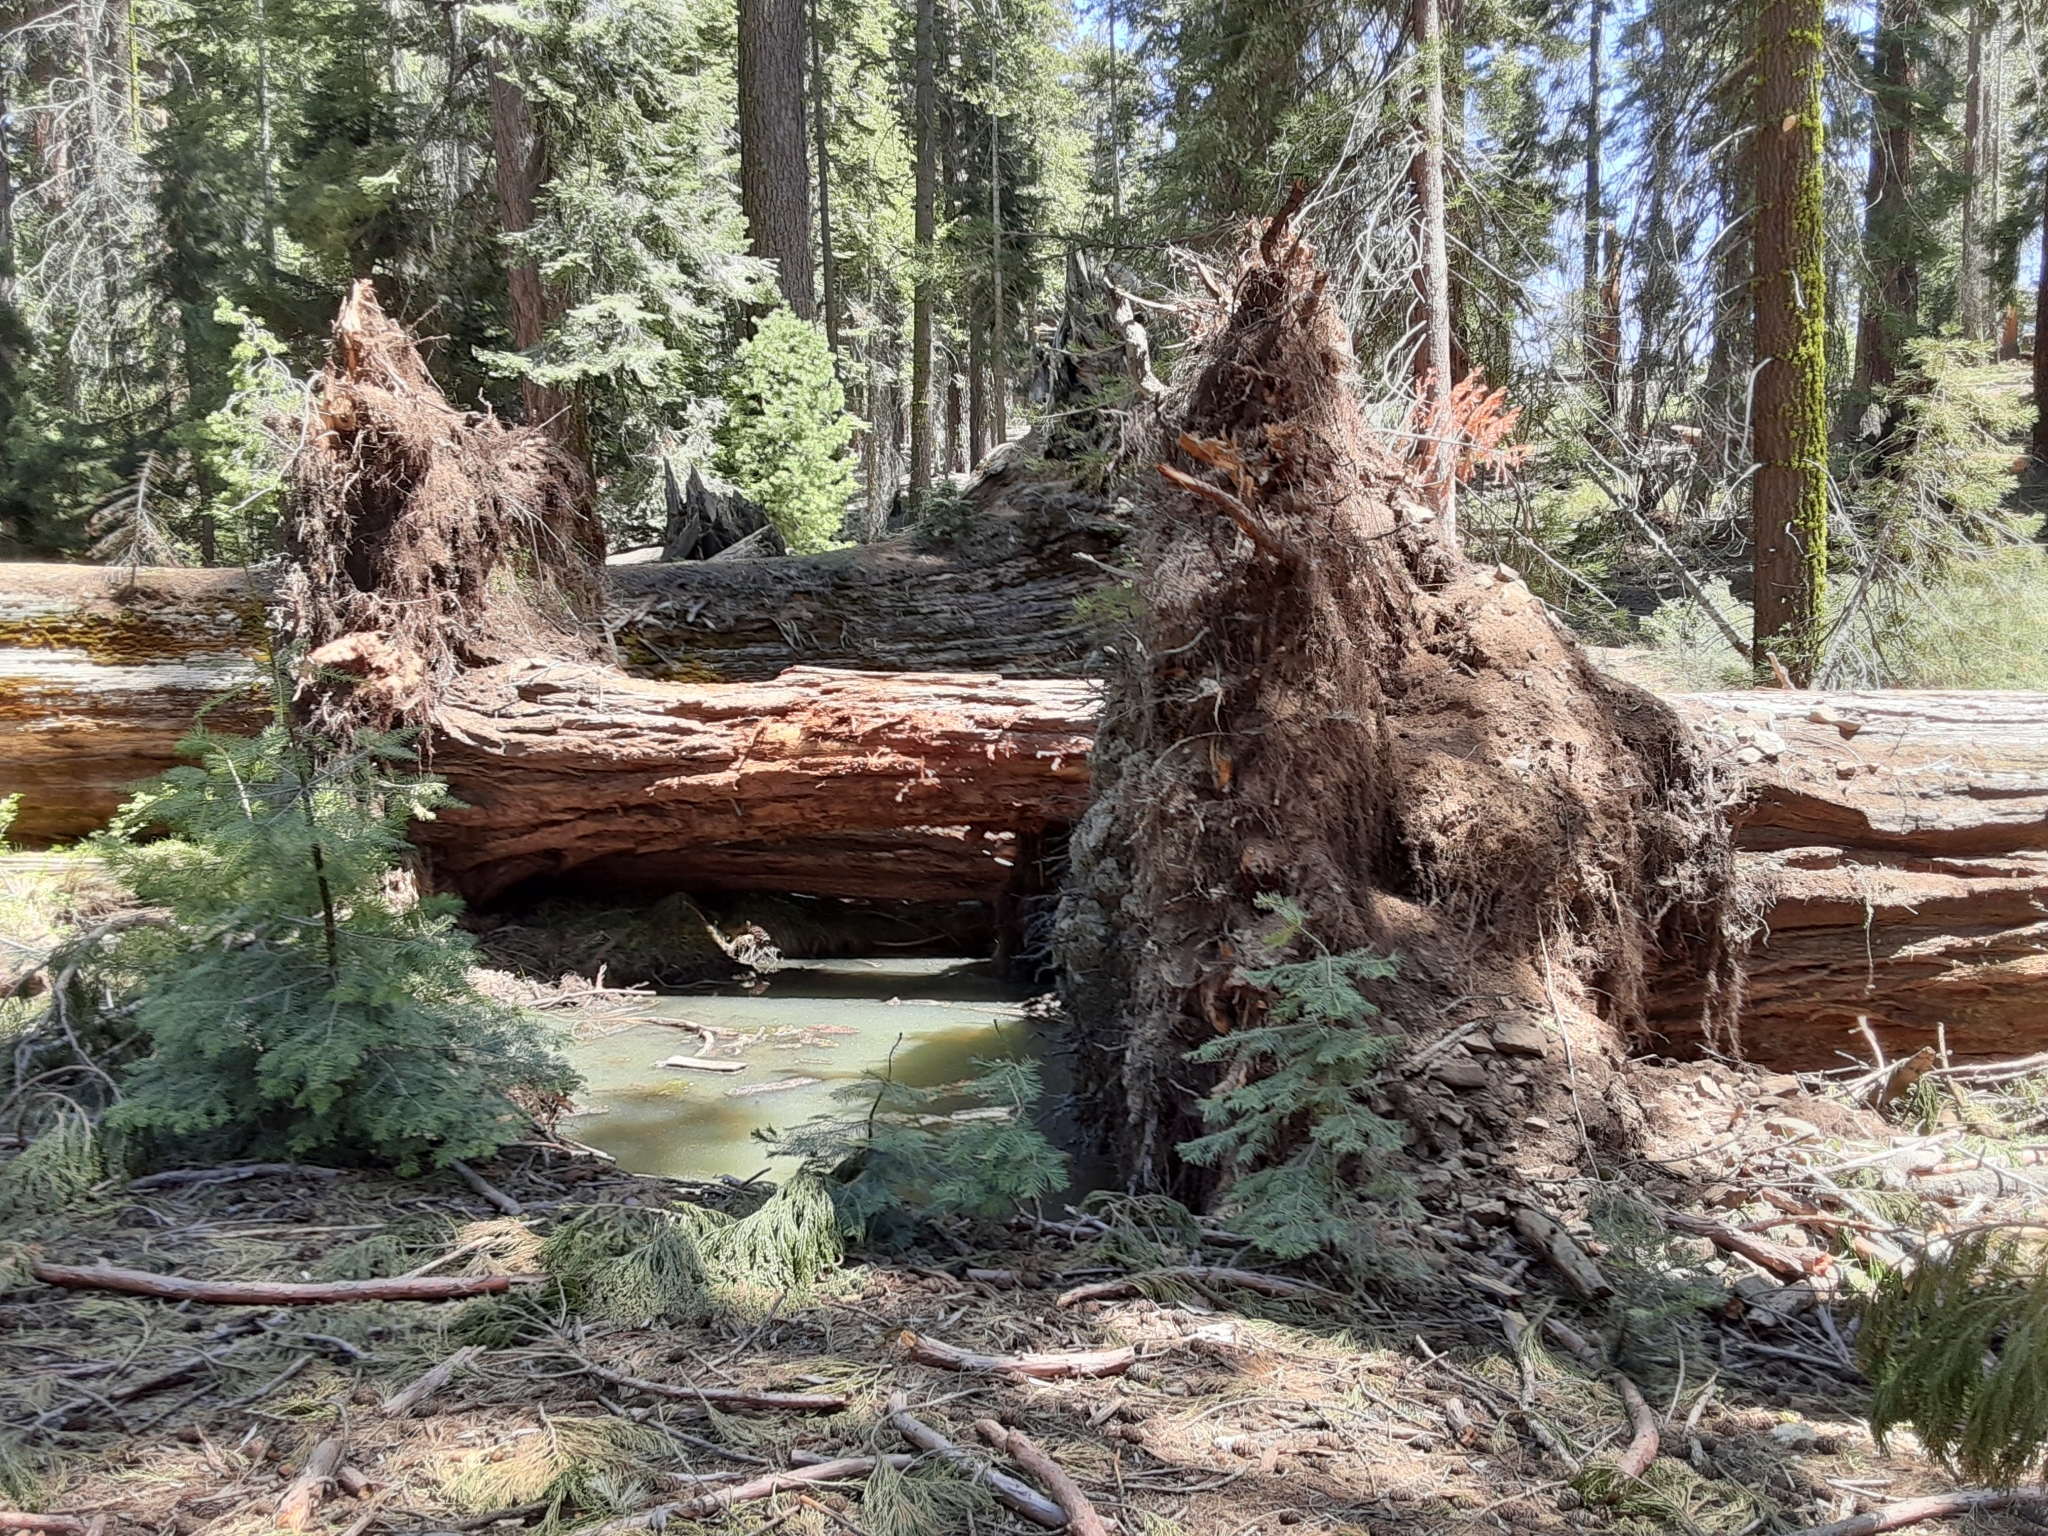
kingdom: Plantae
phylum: Tracheophyta
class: Pinopsida
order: Pinales
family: Cupressaceae
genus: Sequoiadendron
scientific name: Sequoiadendron giganteum
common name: Wellingtonia
